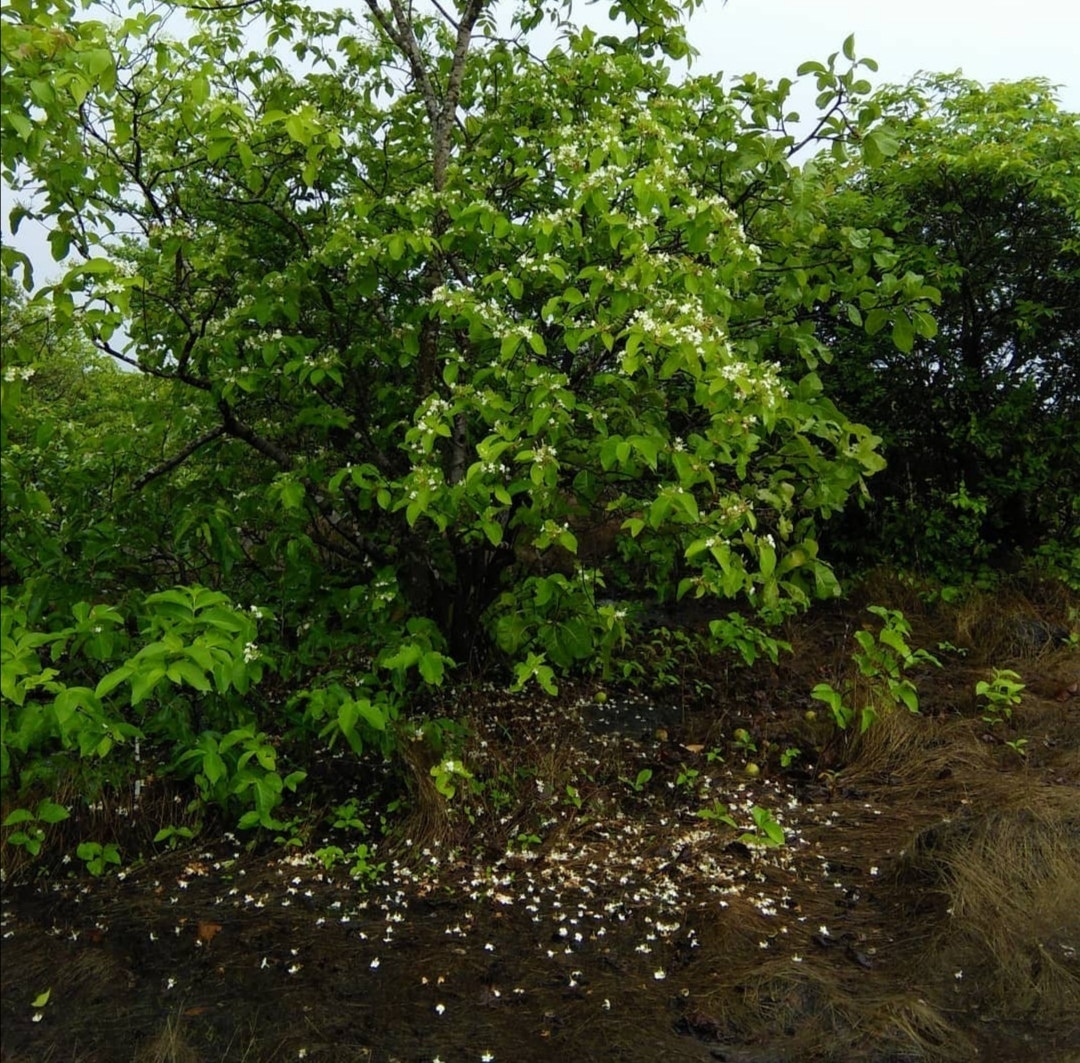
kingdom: Plantae
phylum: Tracheophyta
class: Magnoliopsida
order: Gentianales
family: Apocynaceae
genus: Holarrhena
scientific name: Holarrhena pubescens
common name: Bitter oleander
